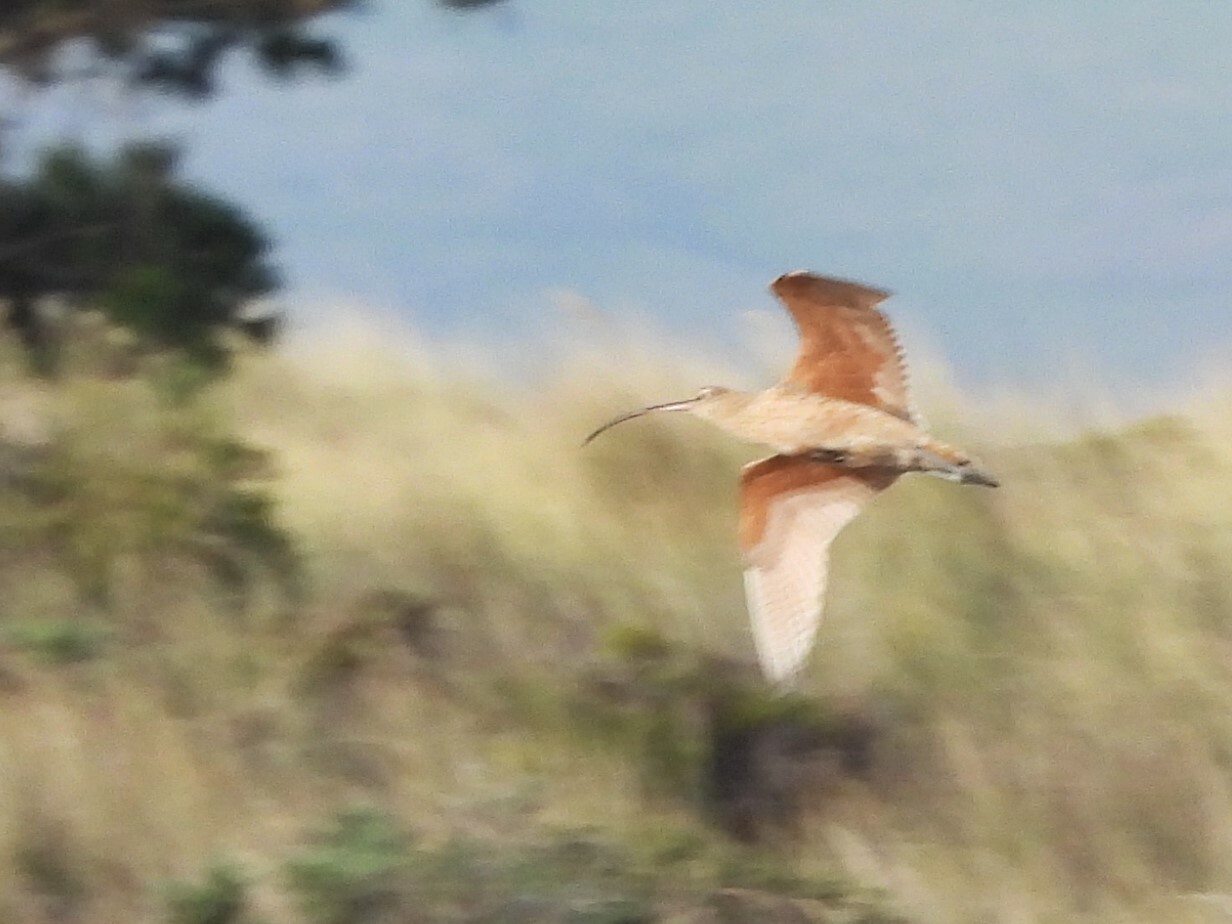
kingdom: Animalia
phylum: Chordata
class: Aves
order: Charadriiformes
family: Scolopacidae
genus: Numenius
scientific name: Numenius americanus
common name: Long-billed curlew
